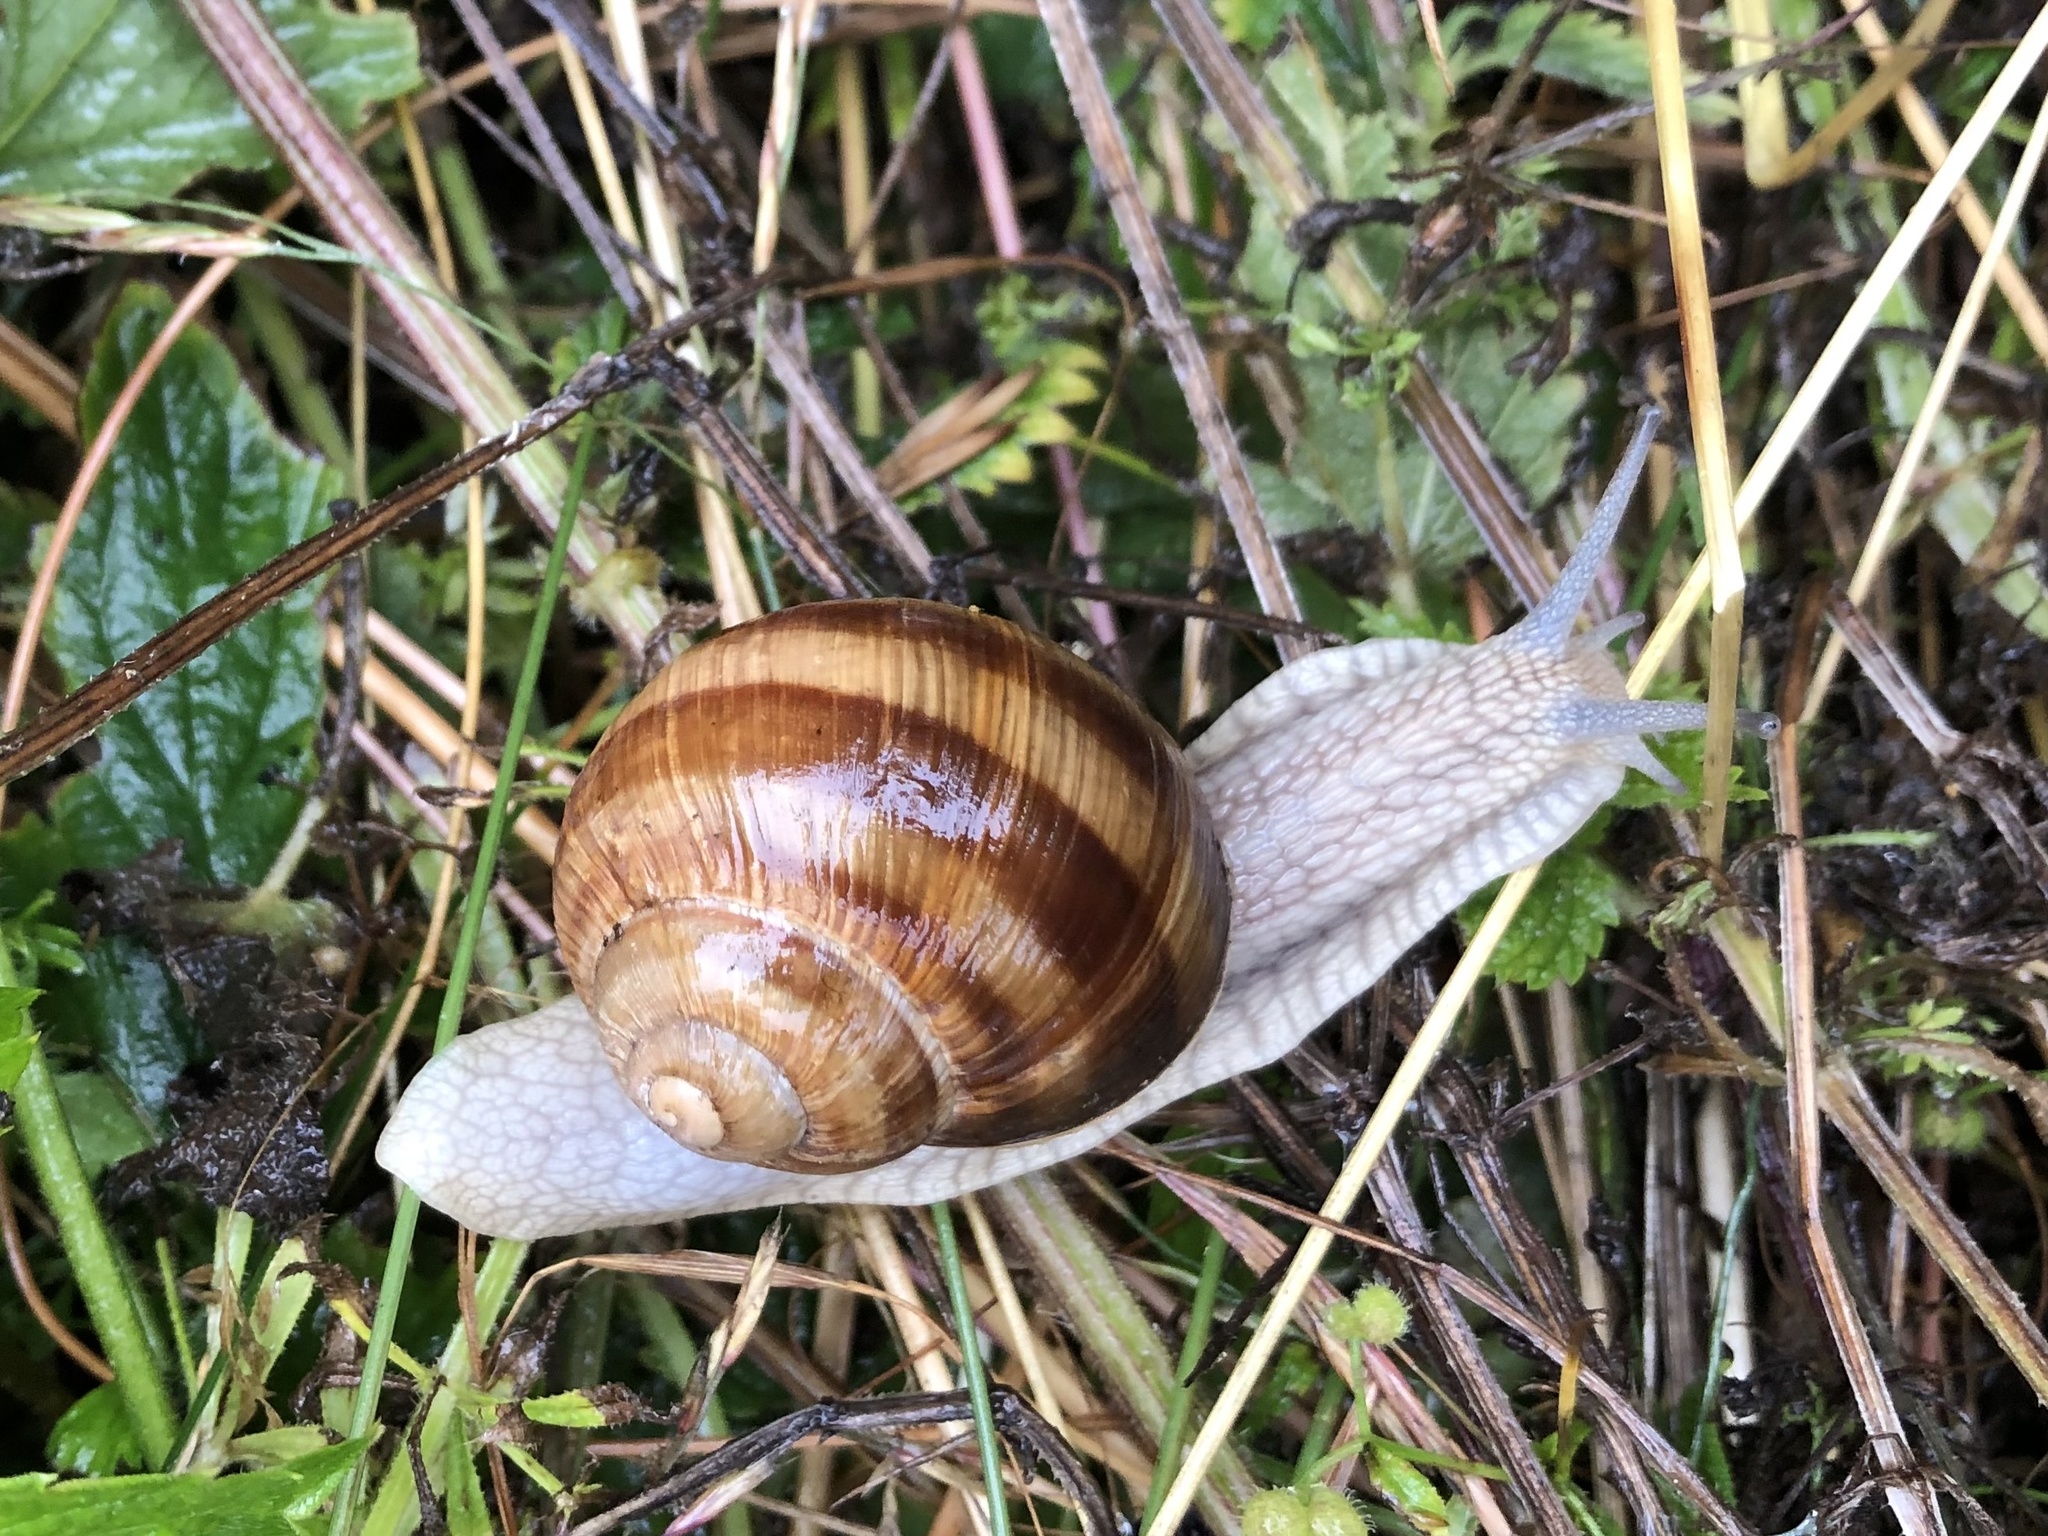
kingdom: Animalia
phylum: Mollusca
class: Gastropoda
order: Stylommatophora
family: Helicidae
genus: Helix
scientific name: Helix pomatia
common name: Roman snail
